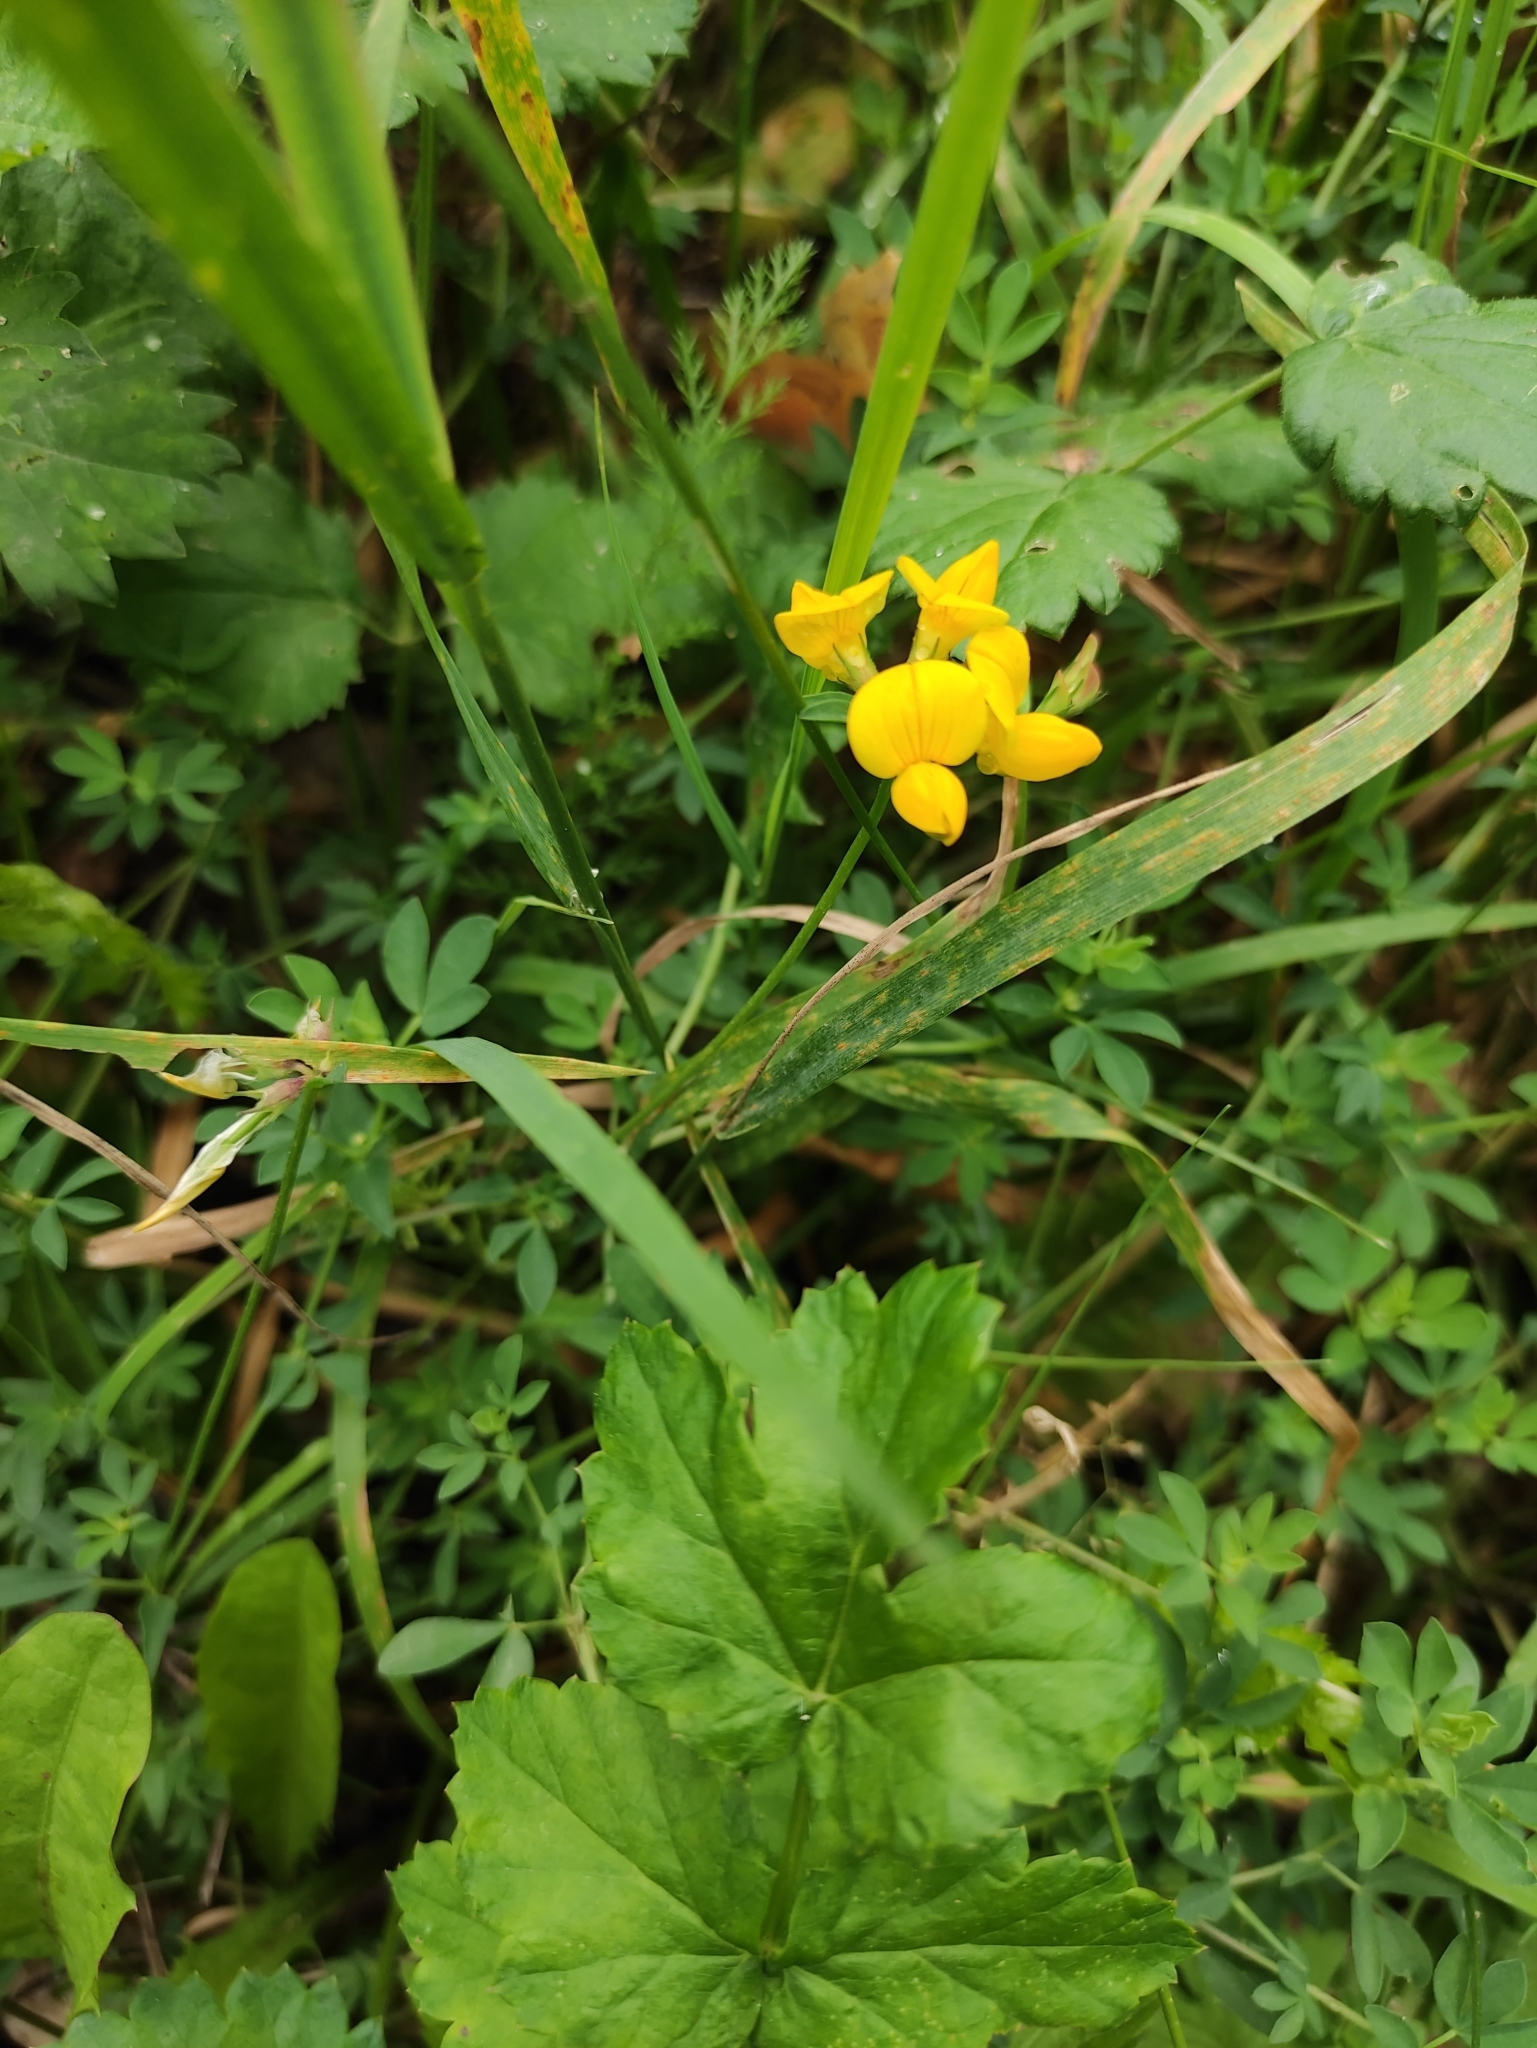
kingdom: Plantae
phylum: Tracheophyta
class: Magnoliopsida
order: Fabales
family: Fabaceae
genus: Lotus
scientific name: Lotus corniculatus
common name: Common bird's-foot-trefoil
